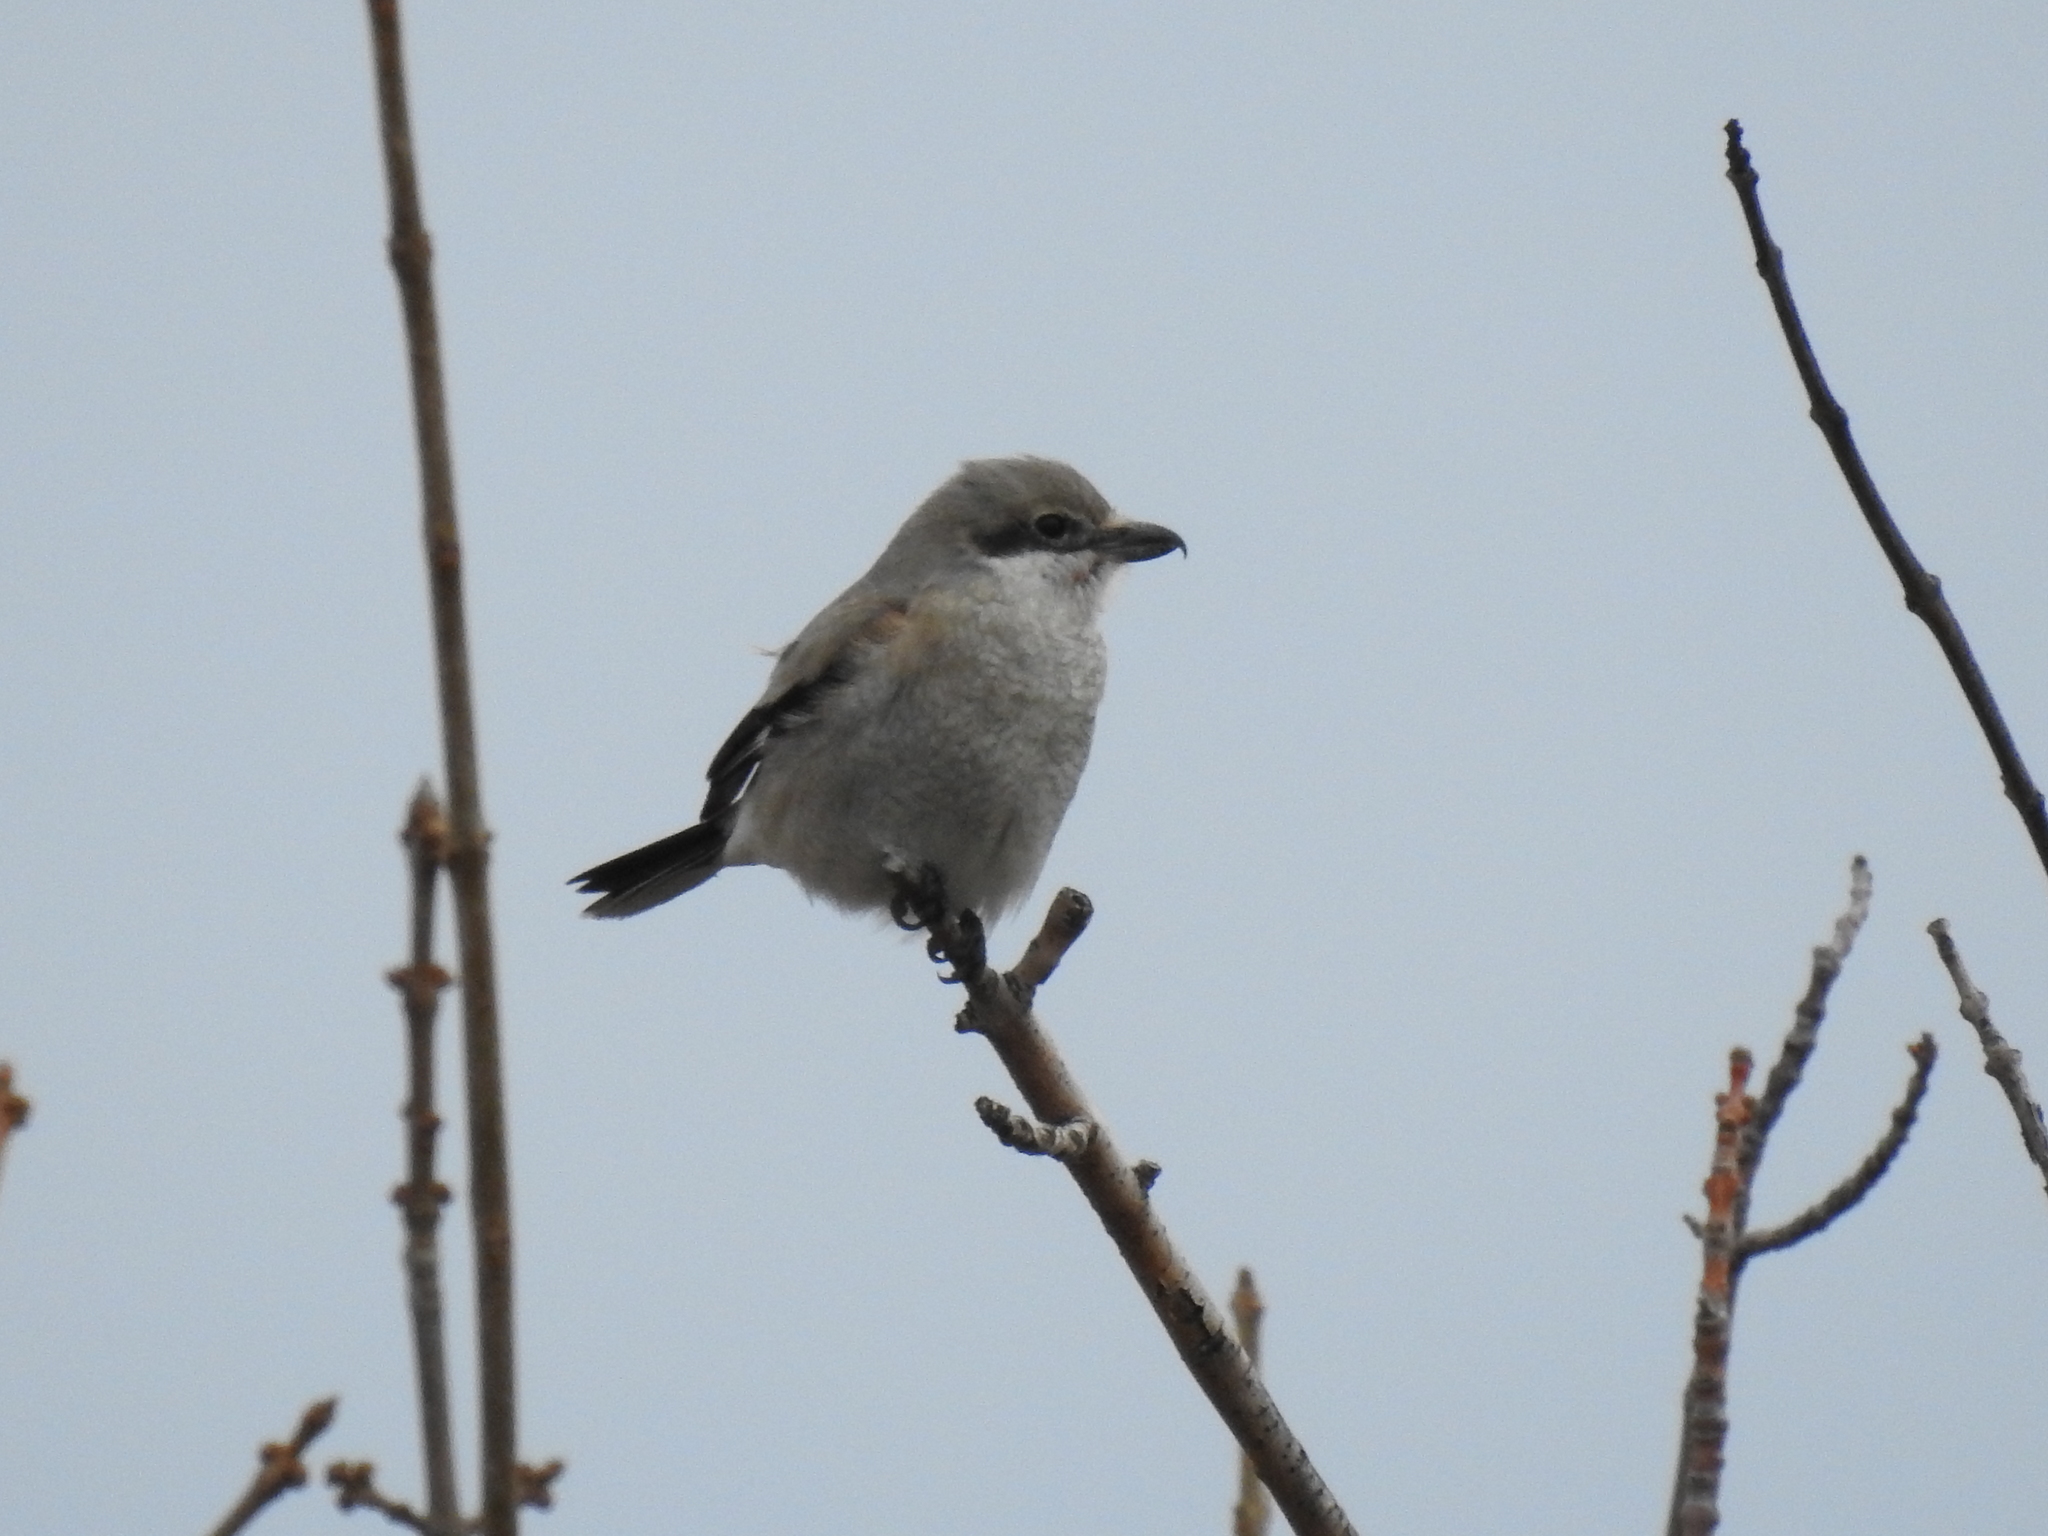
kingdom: Animalia
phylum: Chordata
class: Aves
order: Passeriformes
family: Laniidae
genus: Lanius
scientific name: Lanius borealis
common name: Northern shrike
